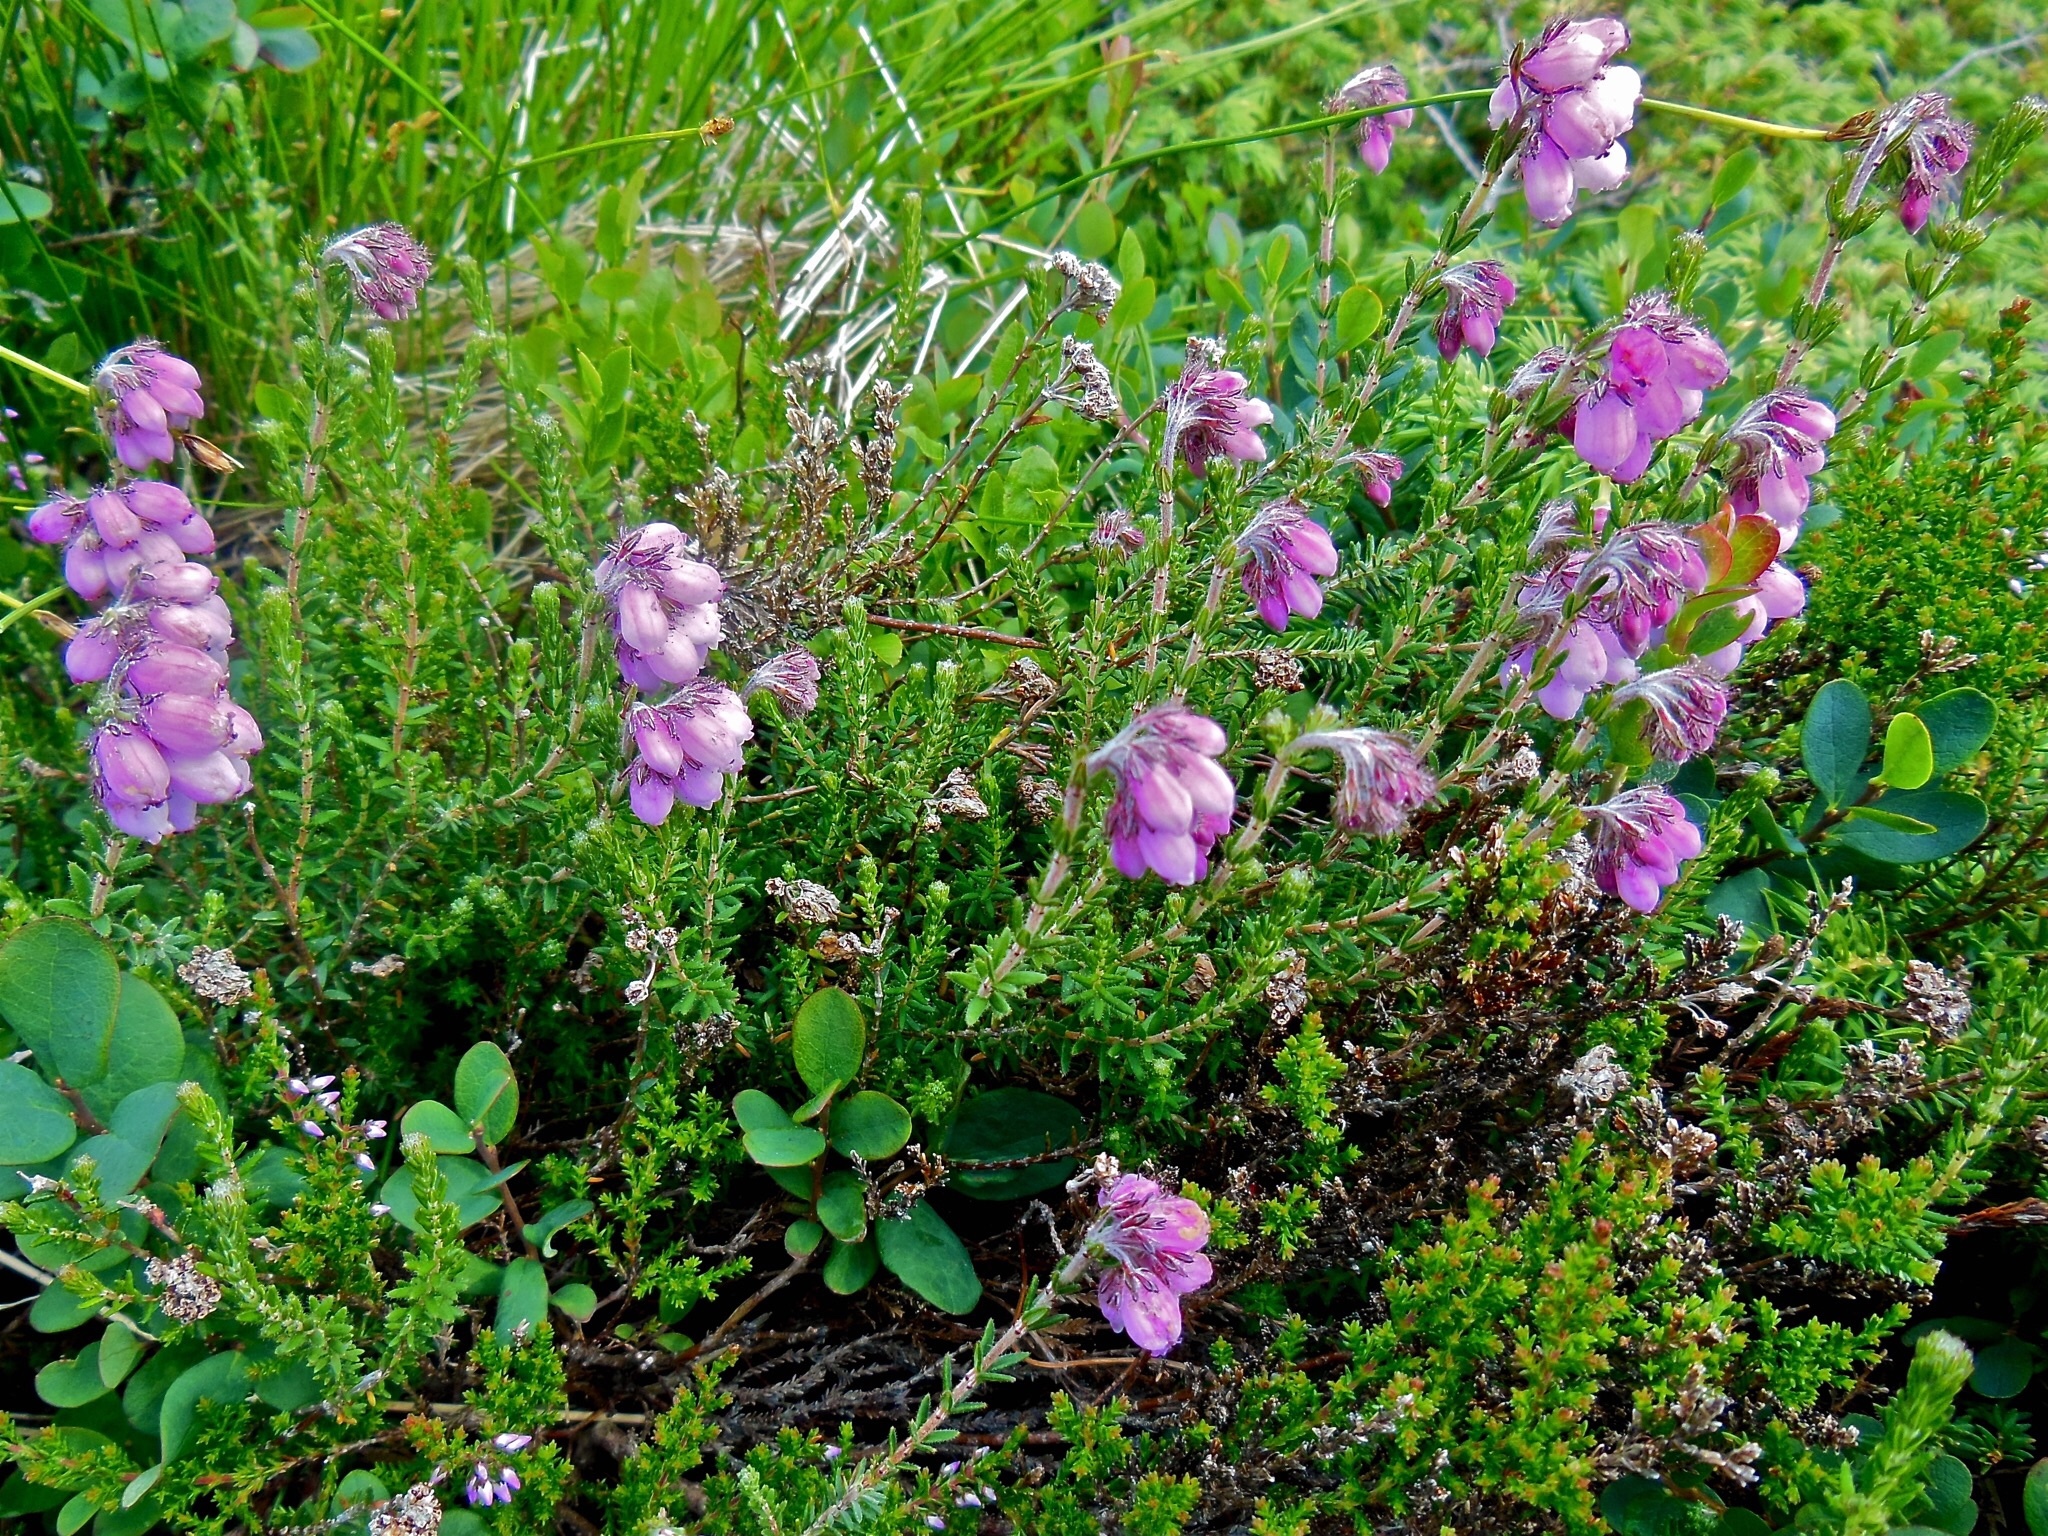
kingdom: Plantae
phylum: Tracheophyta
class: Magnoliopsida
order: Ericales
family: Ericaceae
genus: Erica
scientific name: Erica tetralix
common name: Cross-leaved heath
